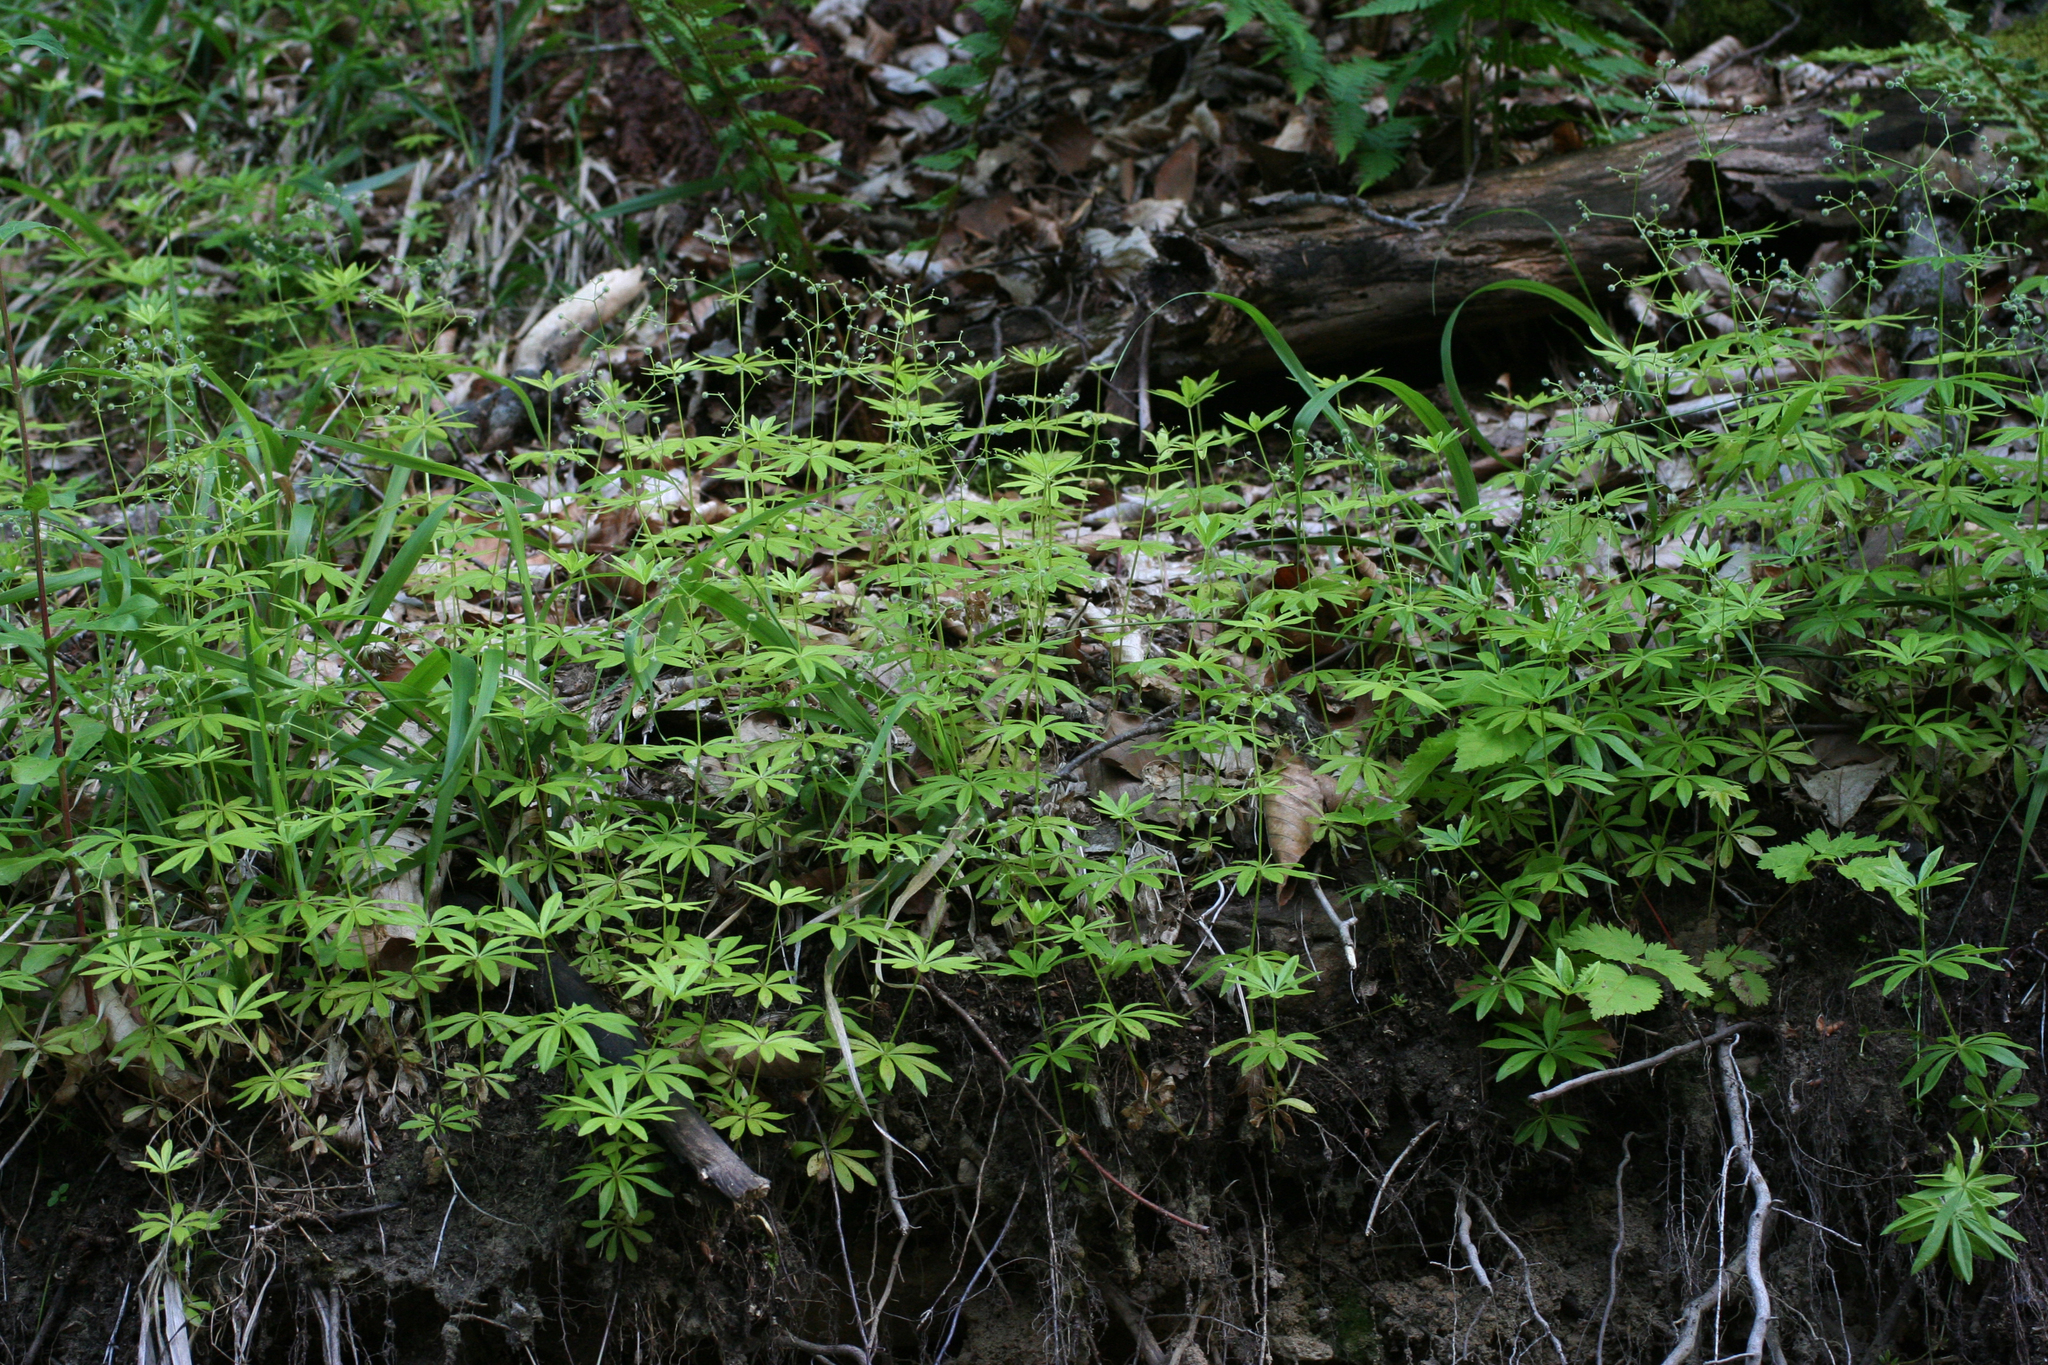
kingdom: Plantae
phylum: Tracheophyta
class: Magnoliopsida
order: Gentianales
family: Rubiaceae
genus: Galium
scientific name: Galium odoratum
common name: Sweet woodruff
